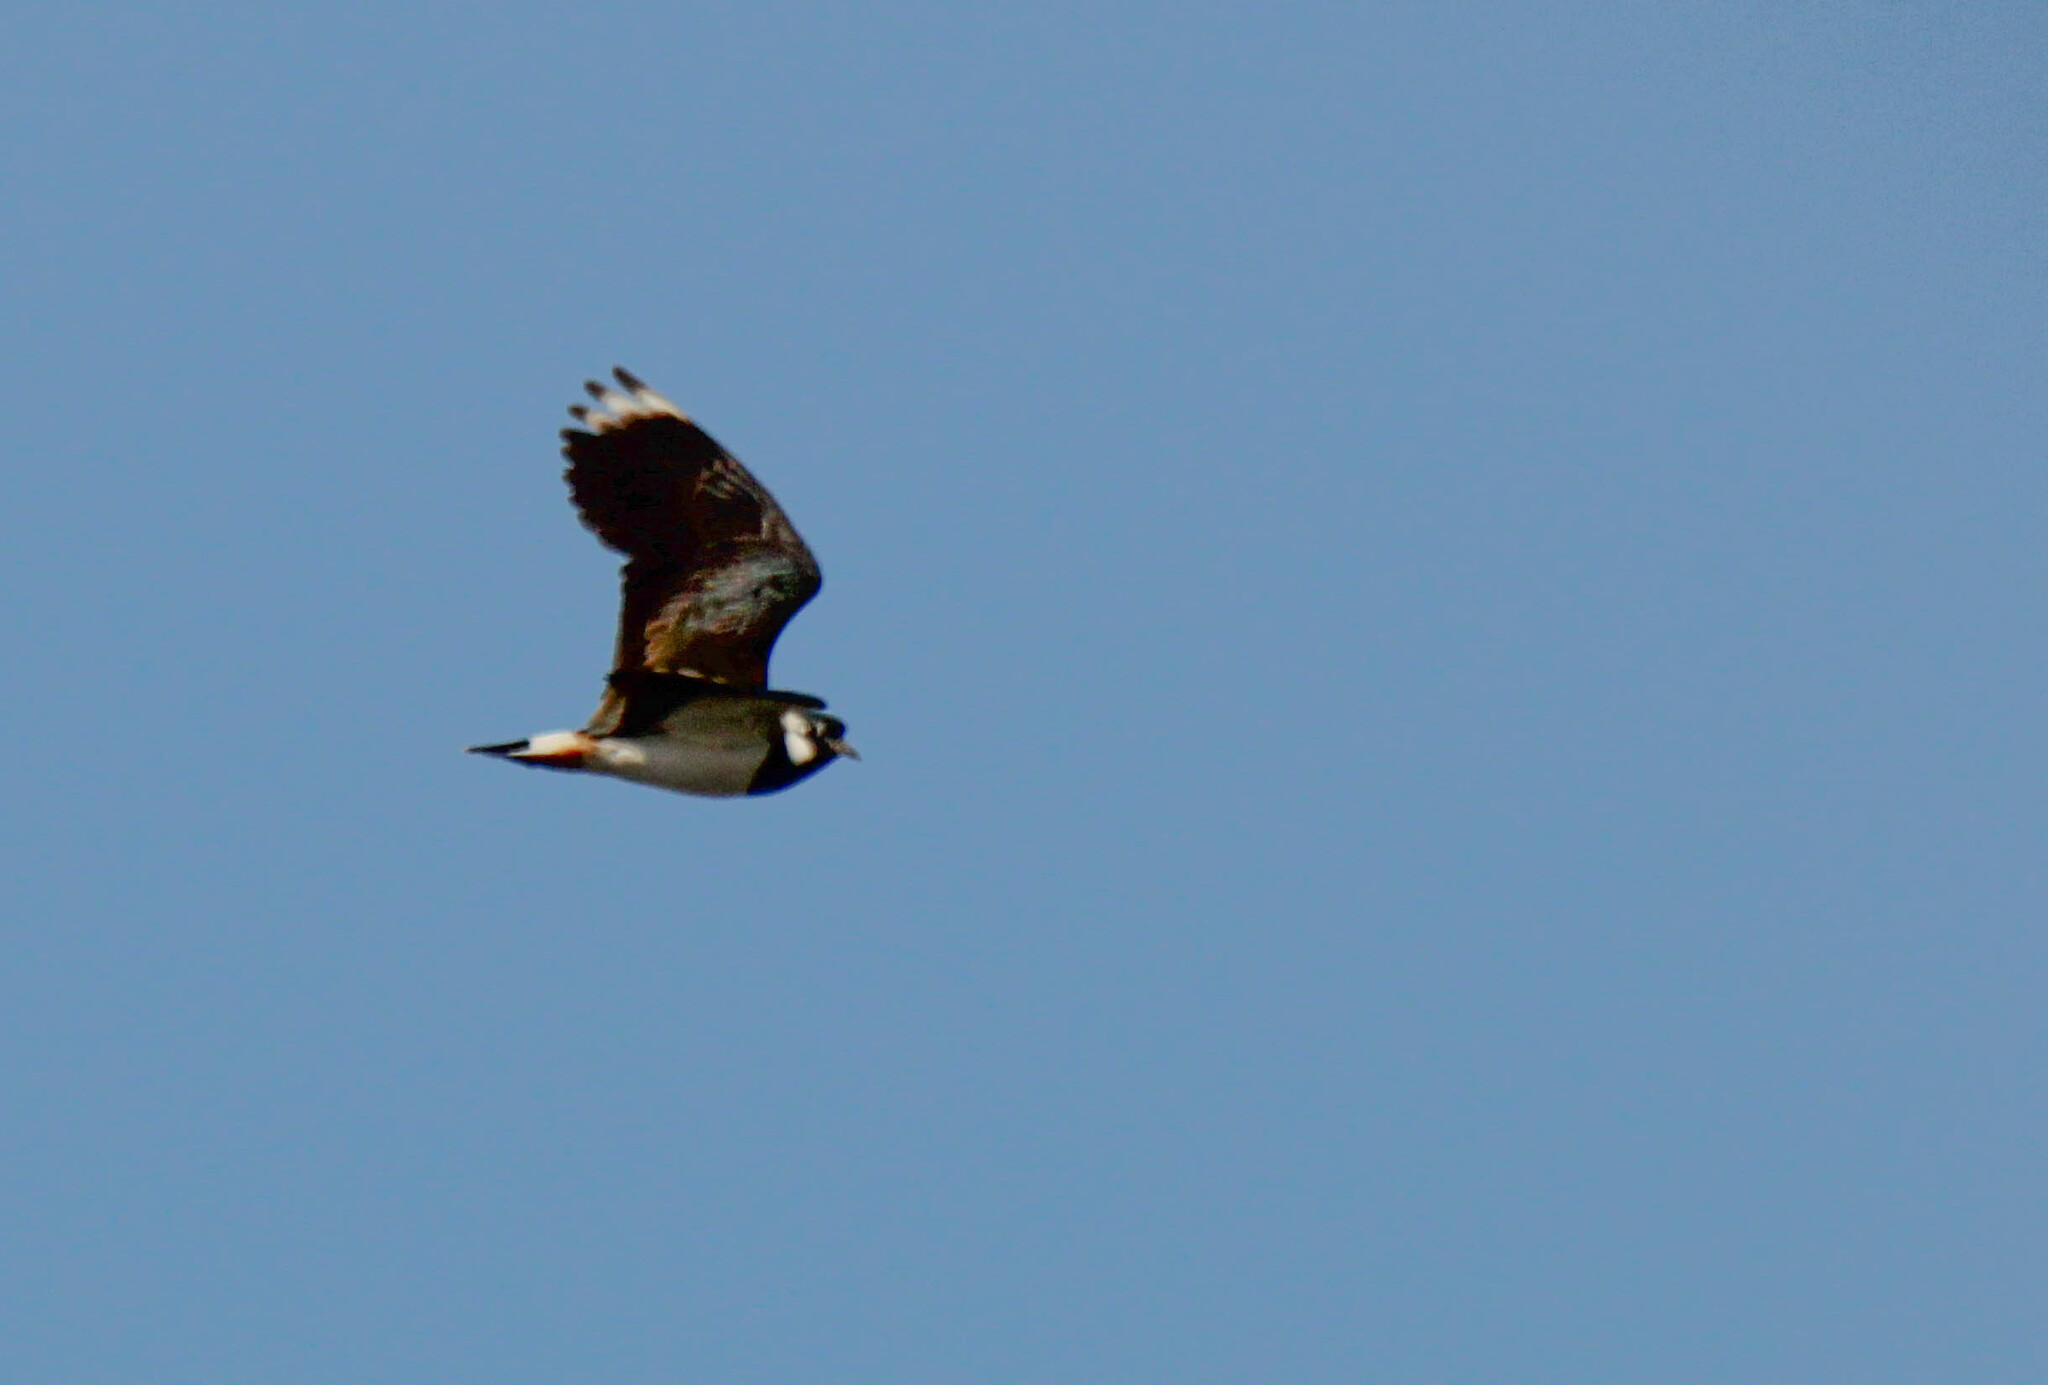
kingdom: Animalia
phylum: Chordata
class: Aves
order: Charadriiformes
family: Charadriidae
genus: Vanellus
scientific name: Vanellus vanellus
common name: Northern lapwing
